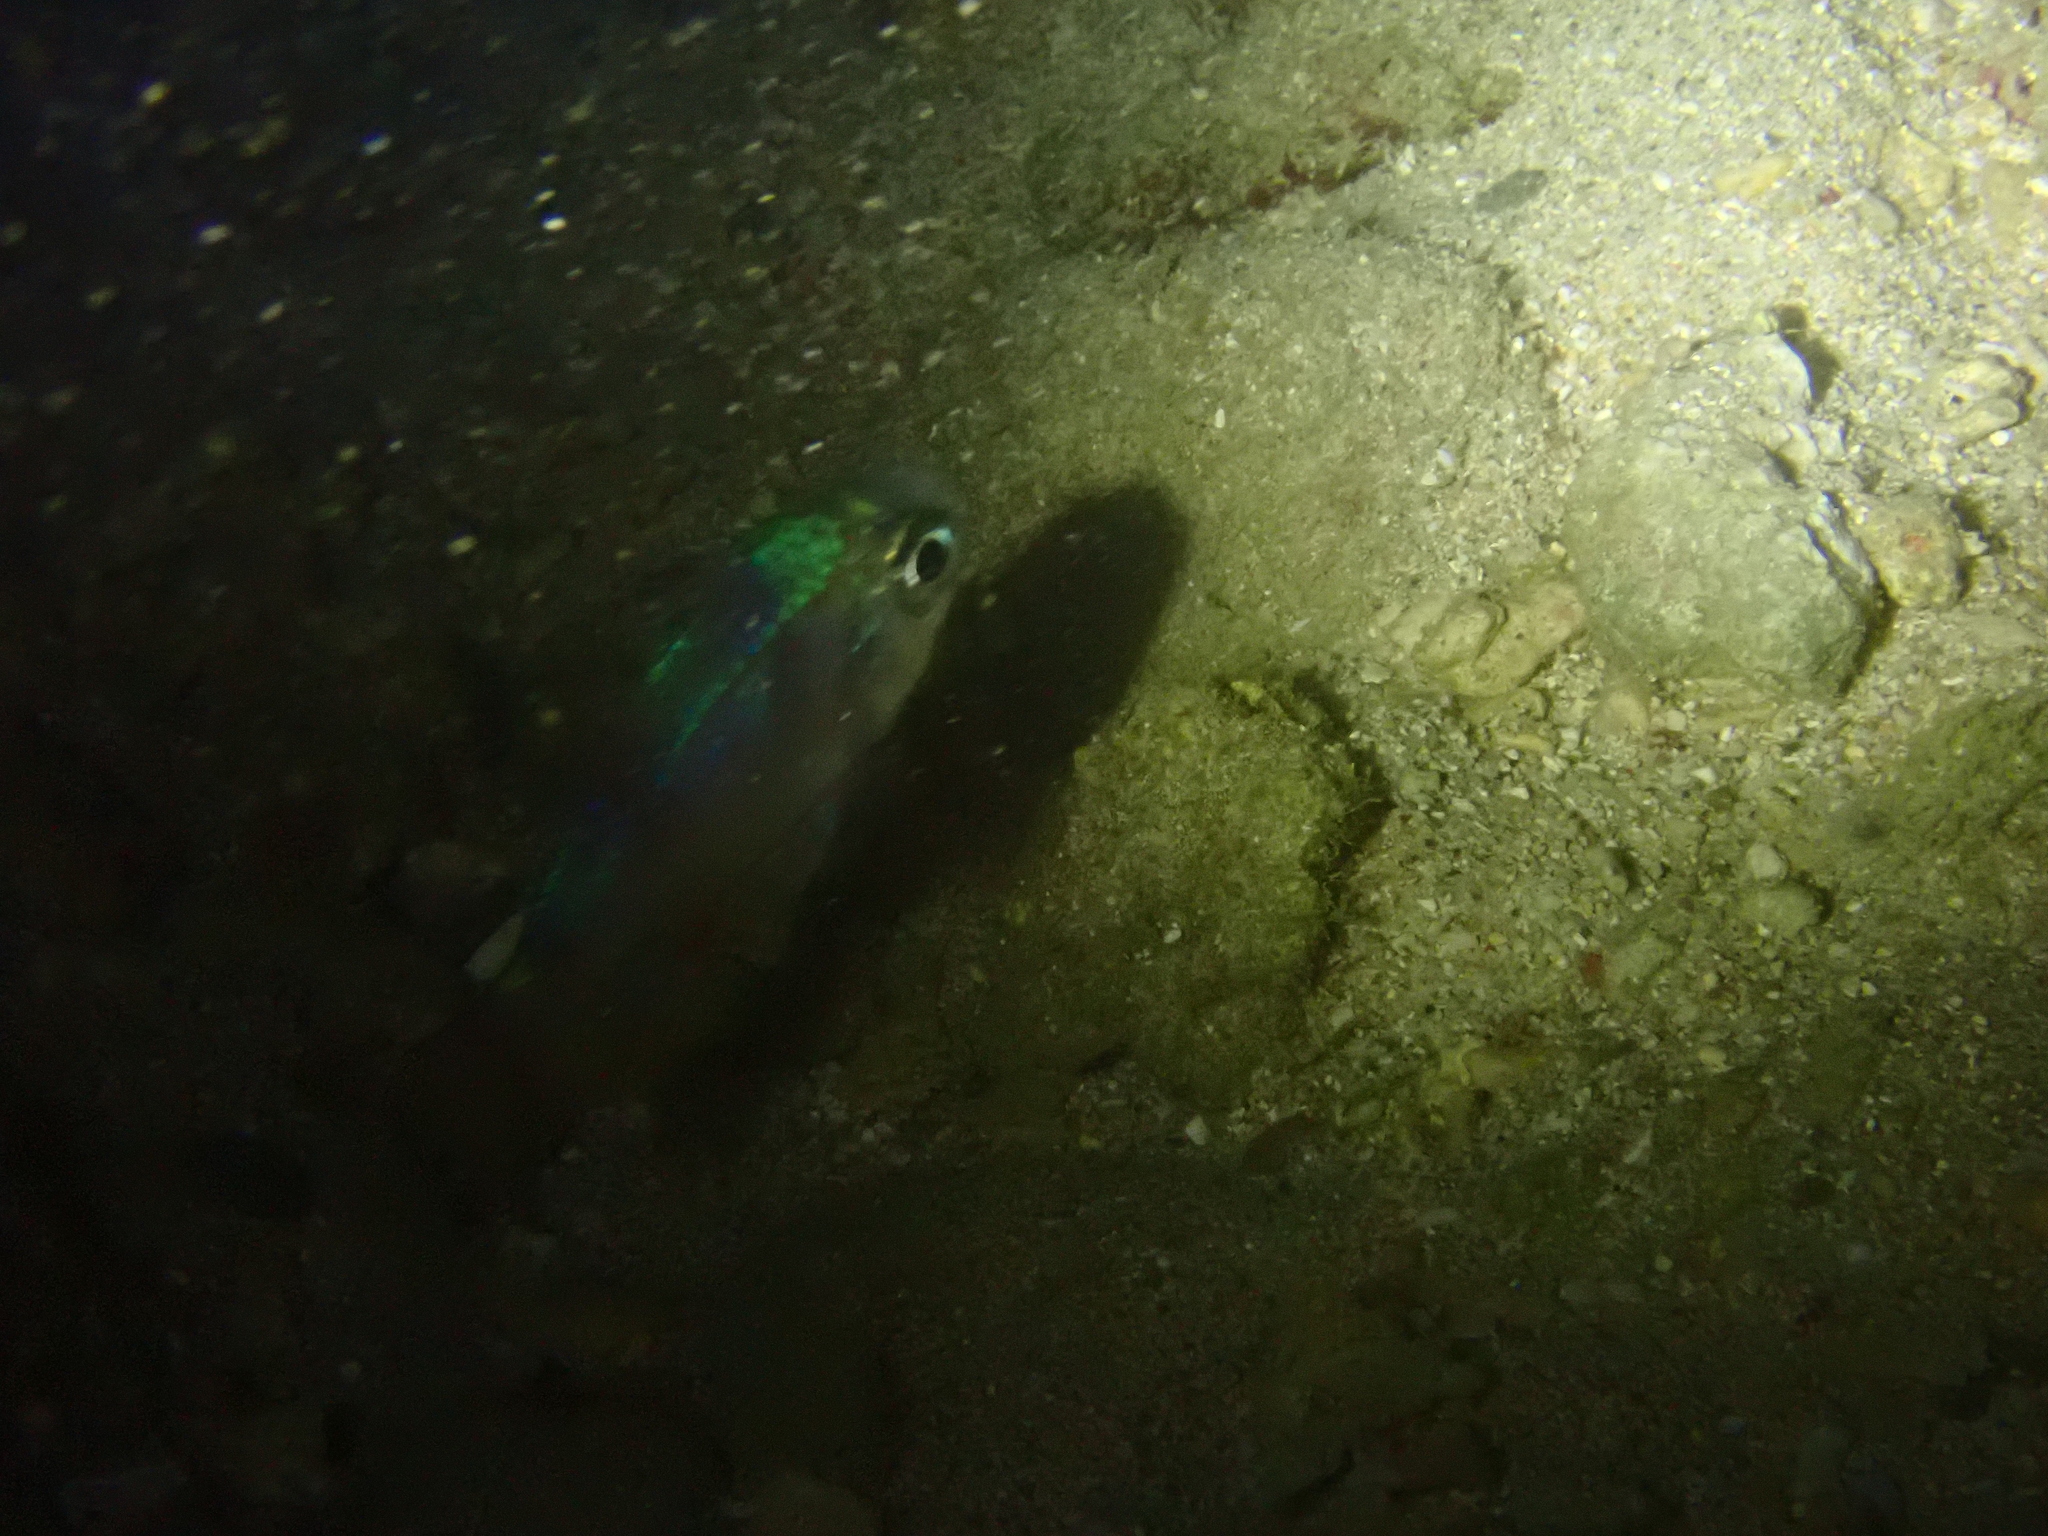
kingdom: Animalia
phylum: Chordata
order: Perciformes
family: Apogonidae
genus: Nectamia
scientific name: Nectamia fusca
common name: Ghost cardinalfish
